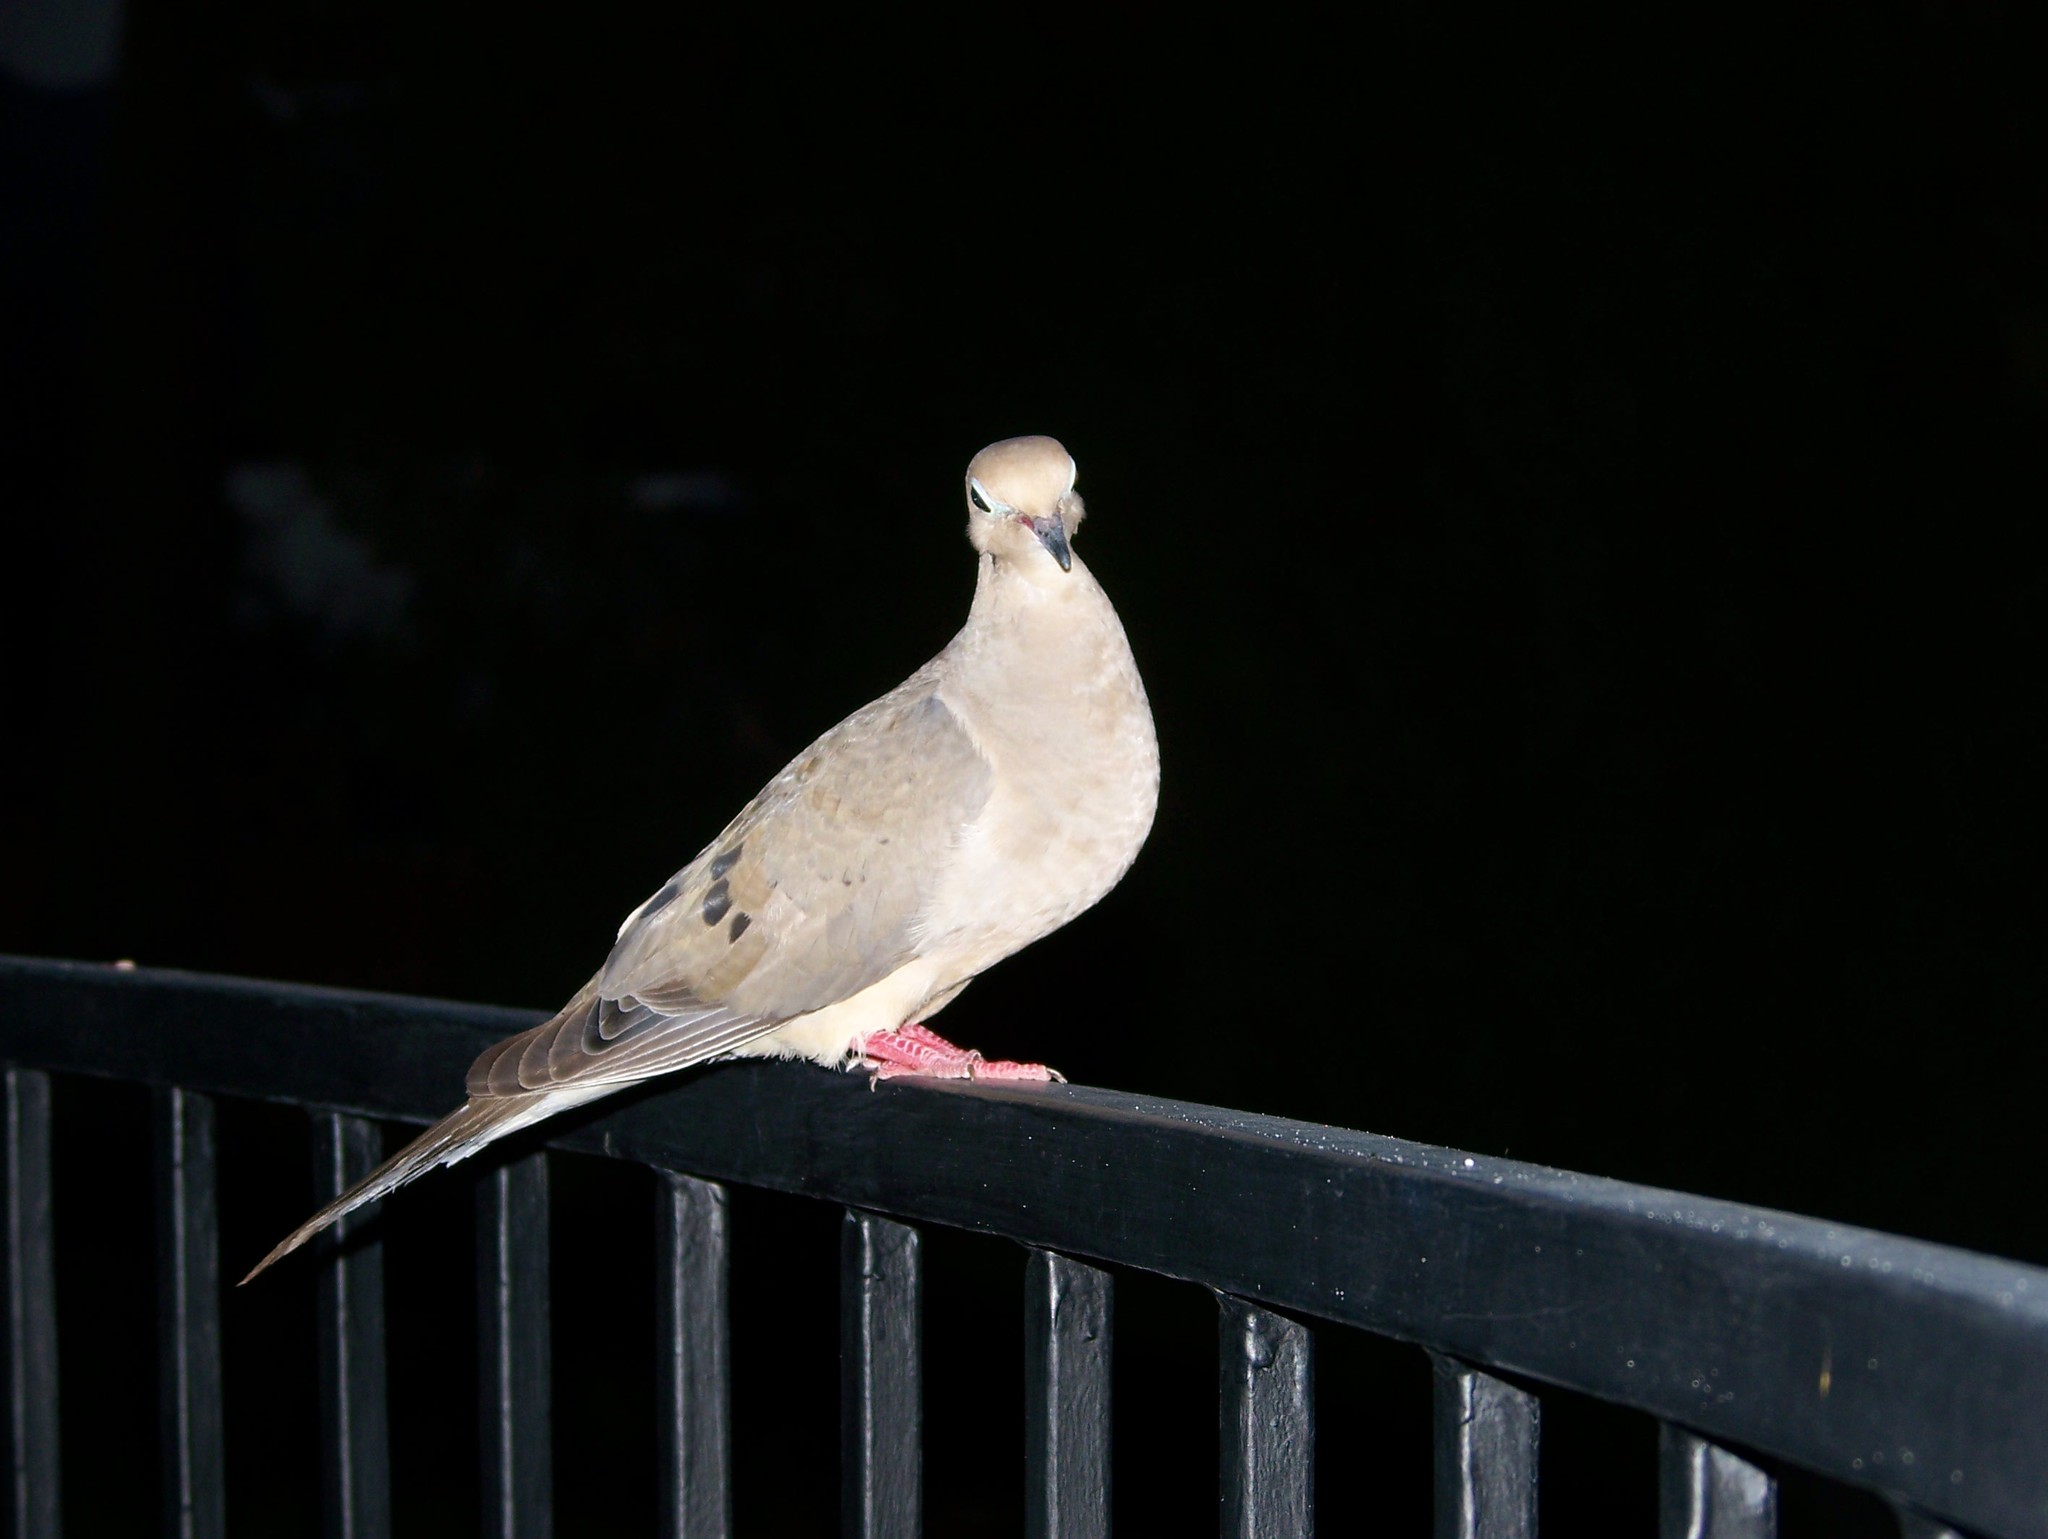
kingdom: Animalia
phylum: Chordata
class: Aves
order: Columbiformes
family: Columbidae
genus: Zenaida
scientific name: Zenaida macroura
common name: Mourning dove
